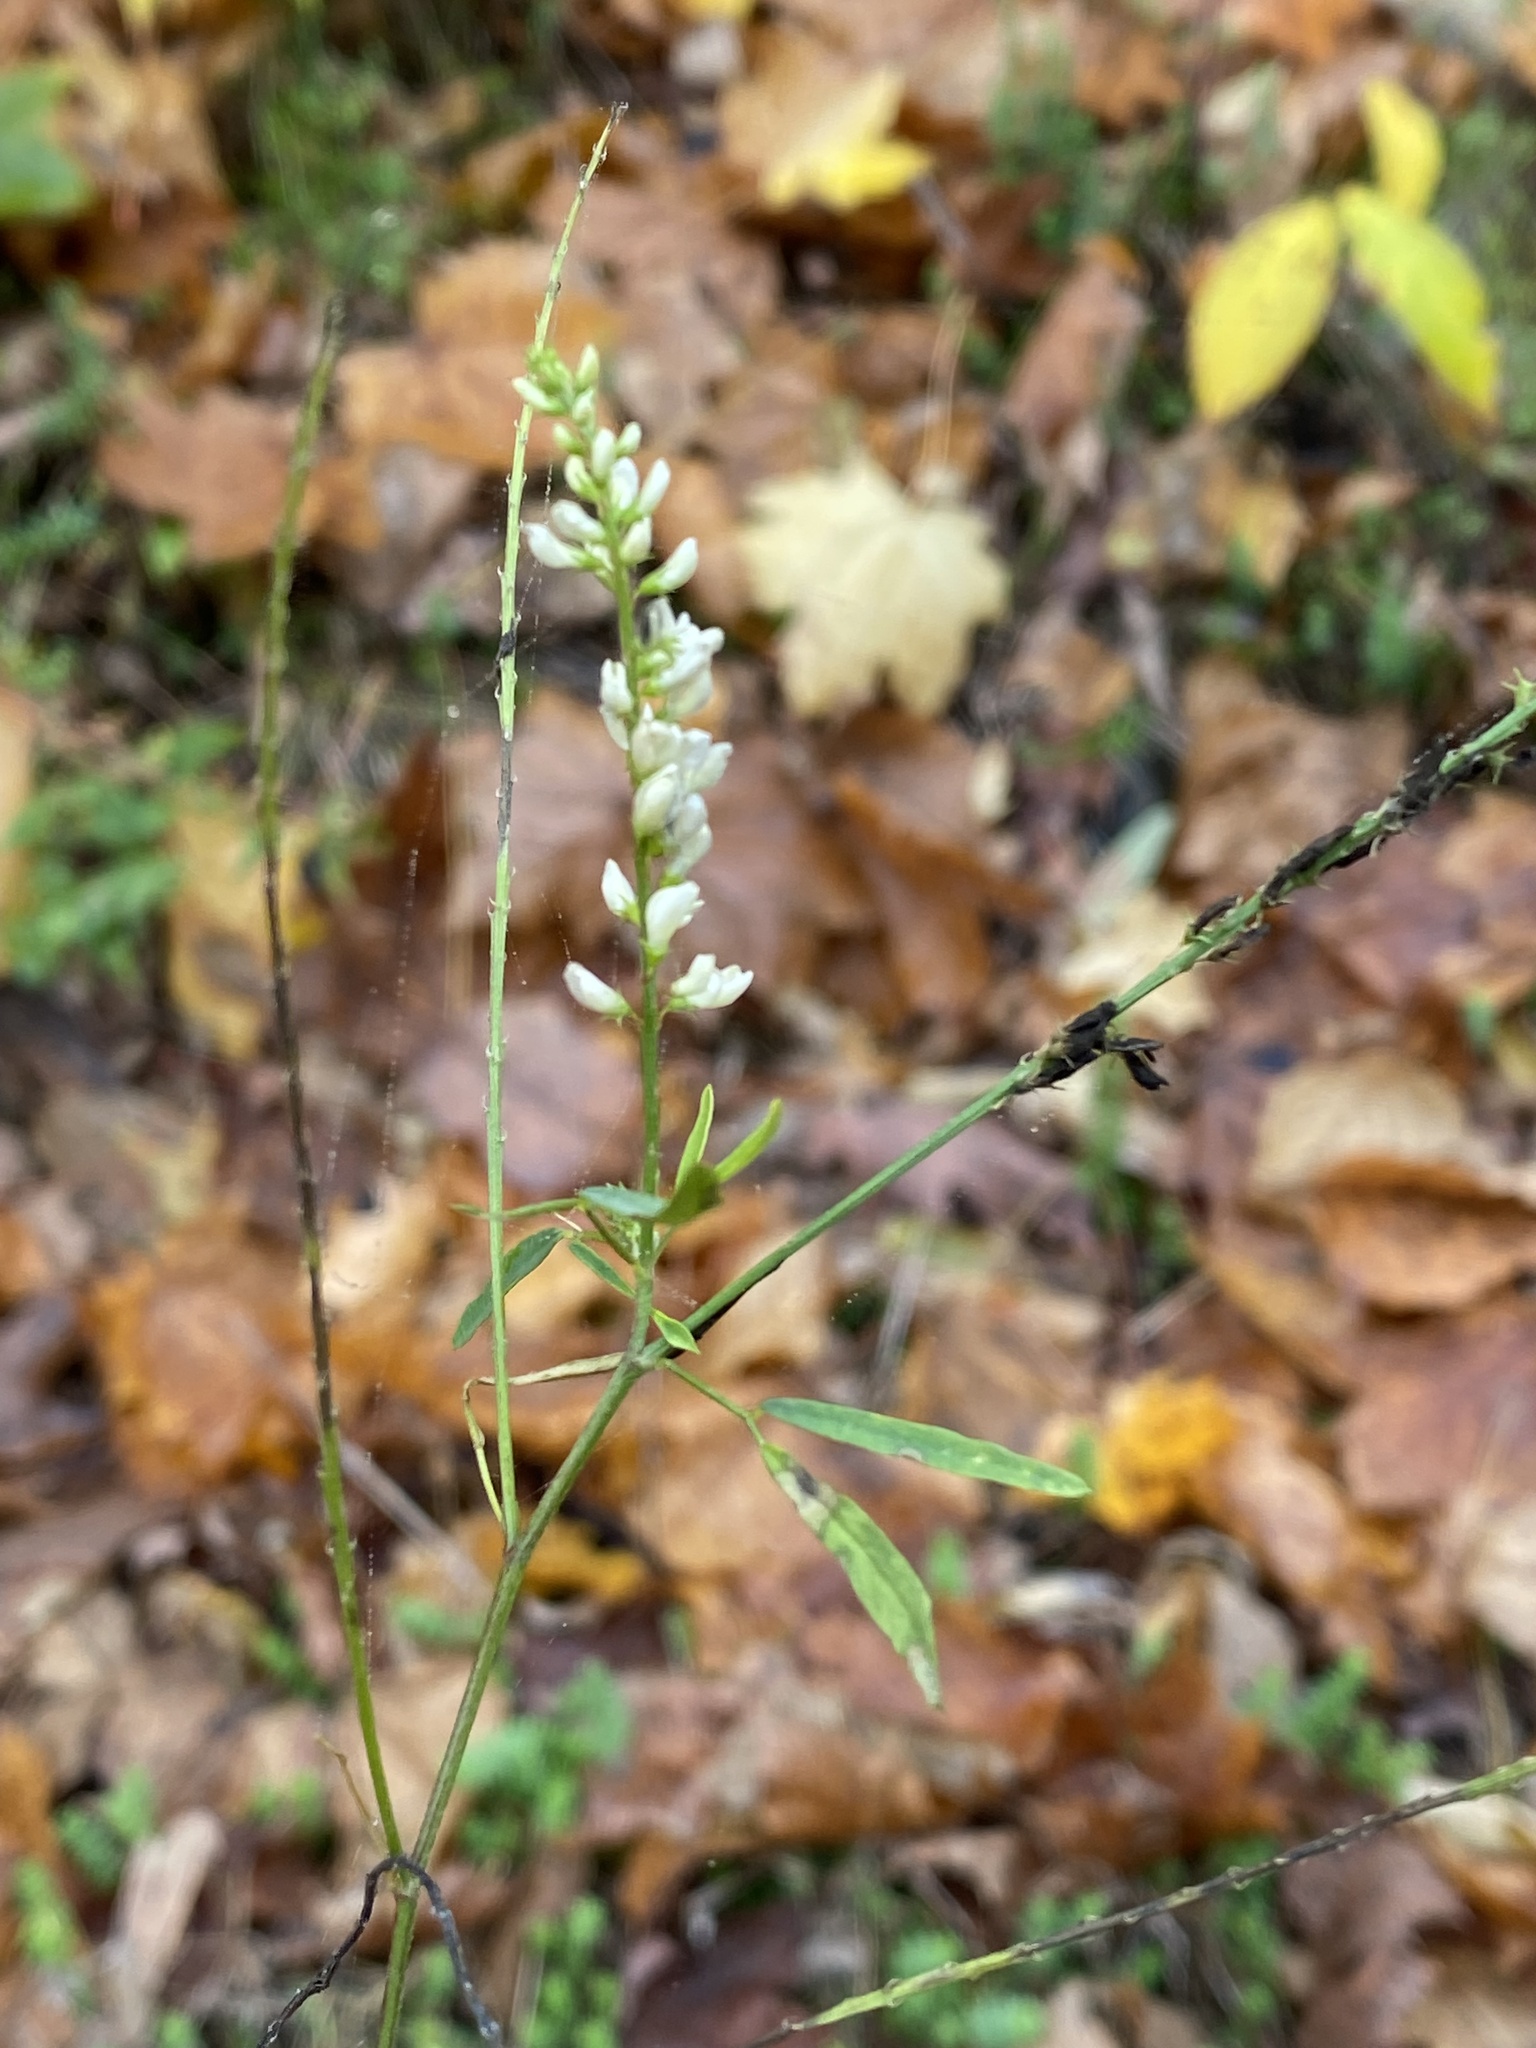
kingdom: Plantae
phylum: Tracheophyta
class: Magnoliopsida
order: Fabales
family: Fabaceae
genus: Melilotus
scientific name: Melilotus albus
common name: White melilot
